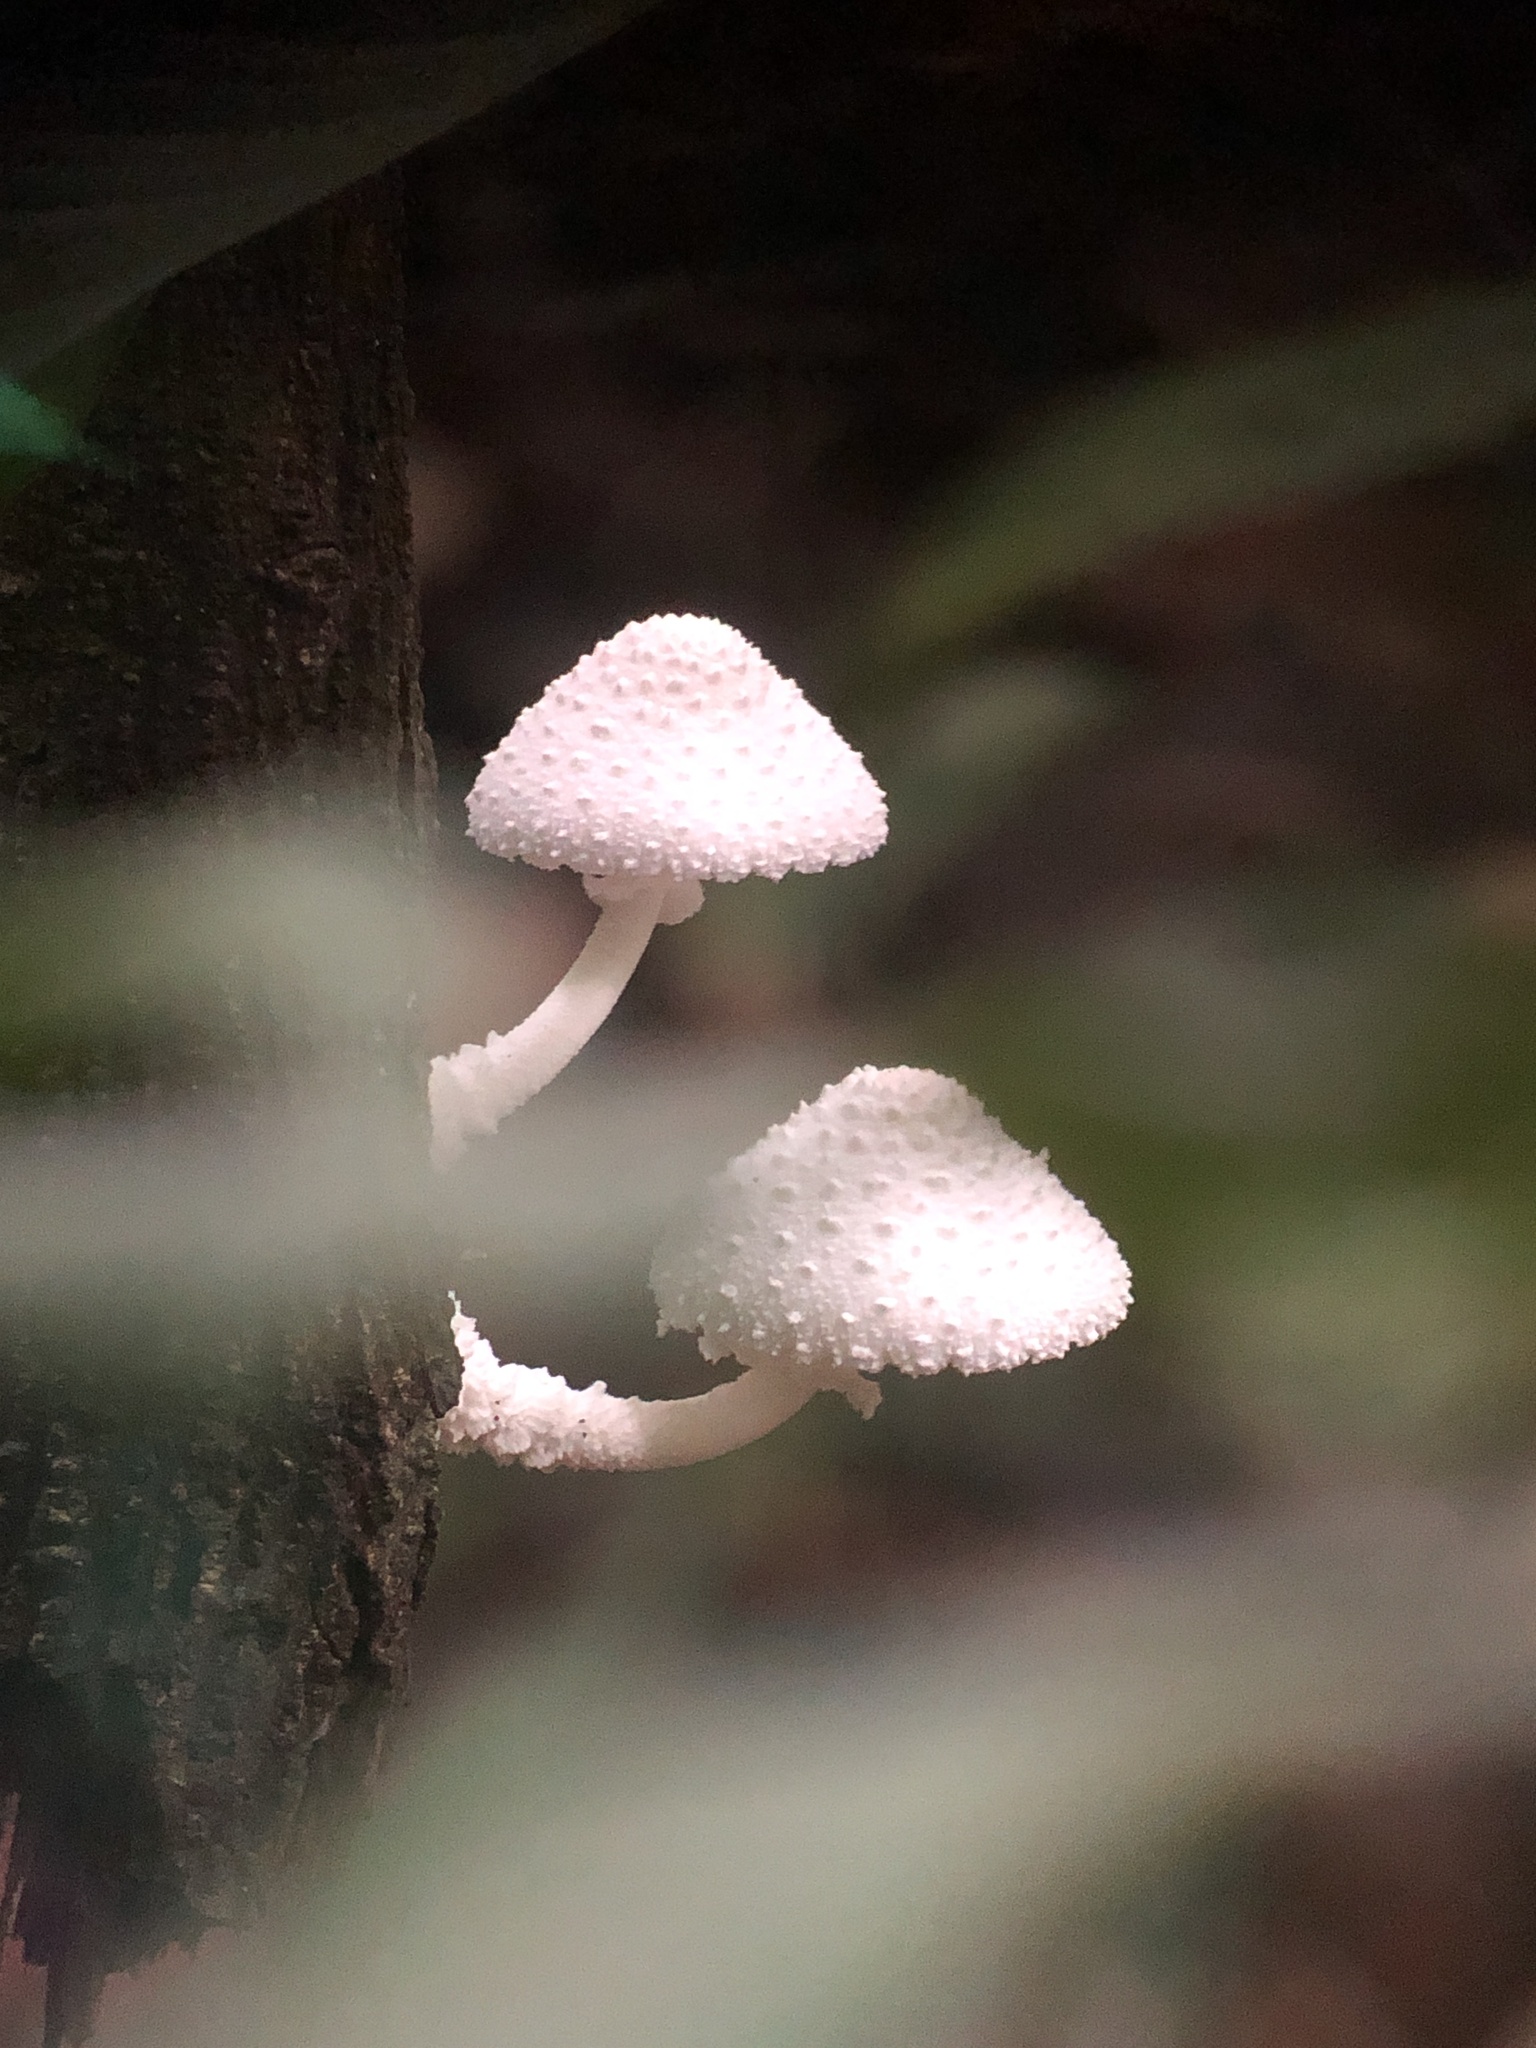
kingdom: Fungi
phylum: Basidiomycota
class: Agaricomycetes
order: Agaricales
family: Agaricaceae
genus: Leucocoprinus
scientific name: Leucocoprinus cretaceus
